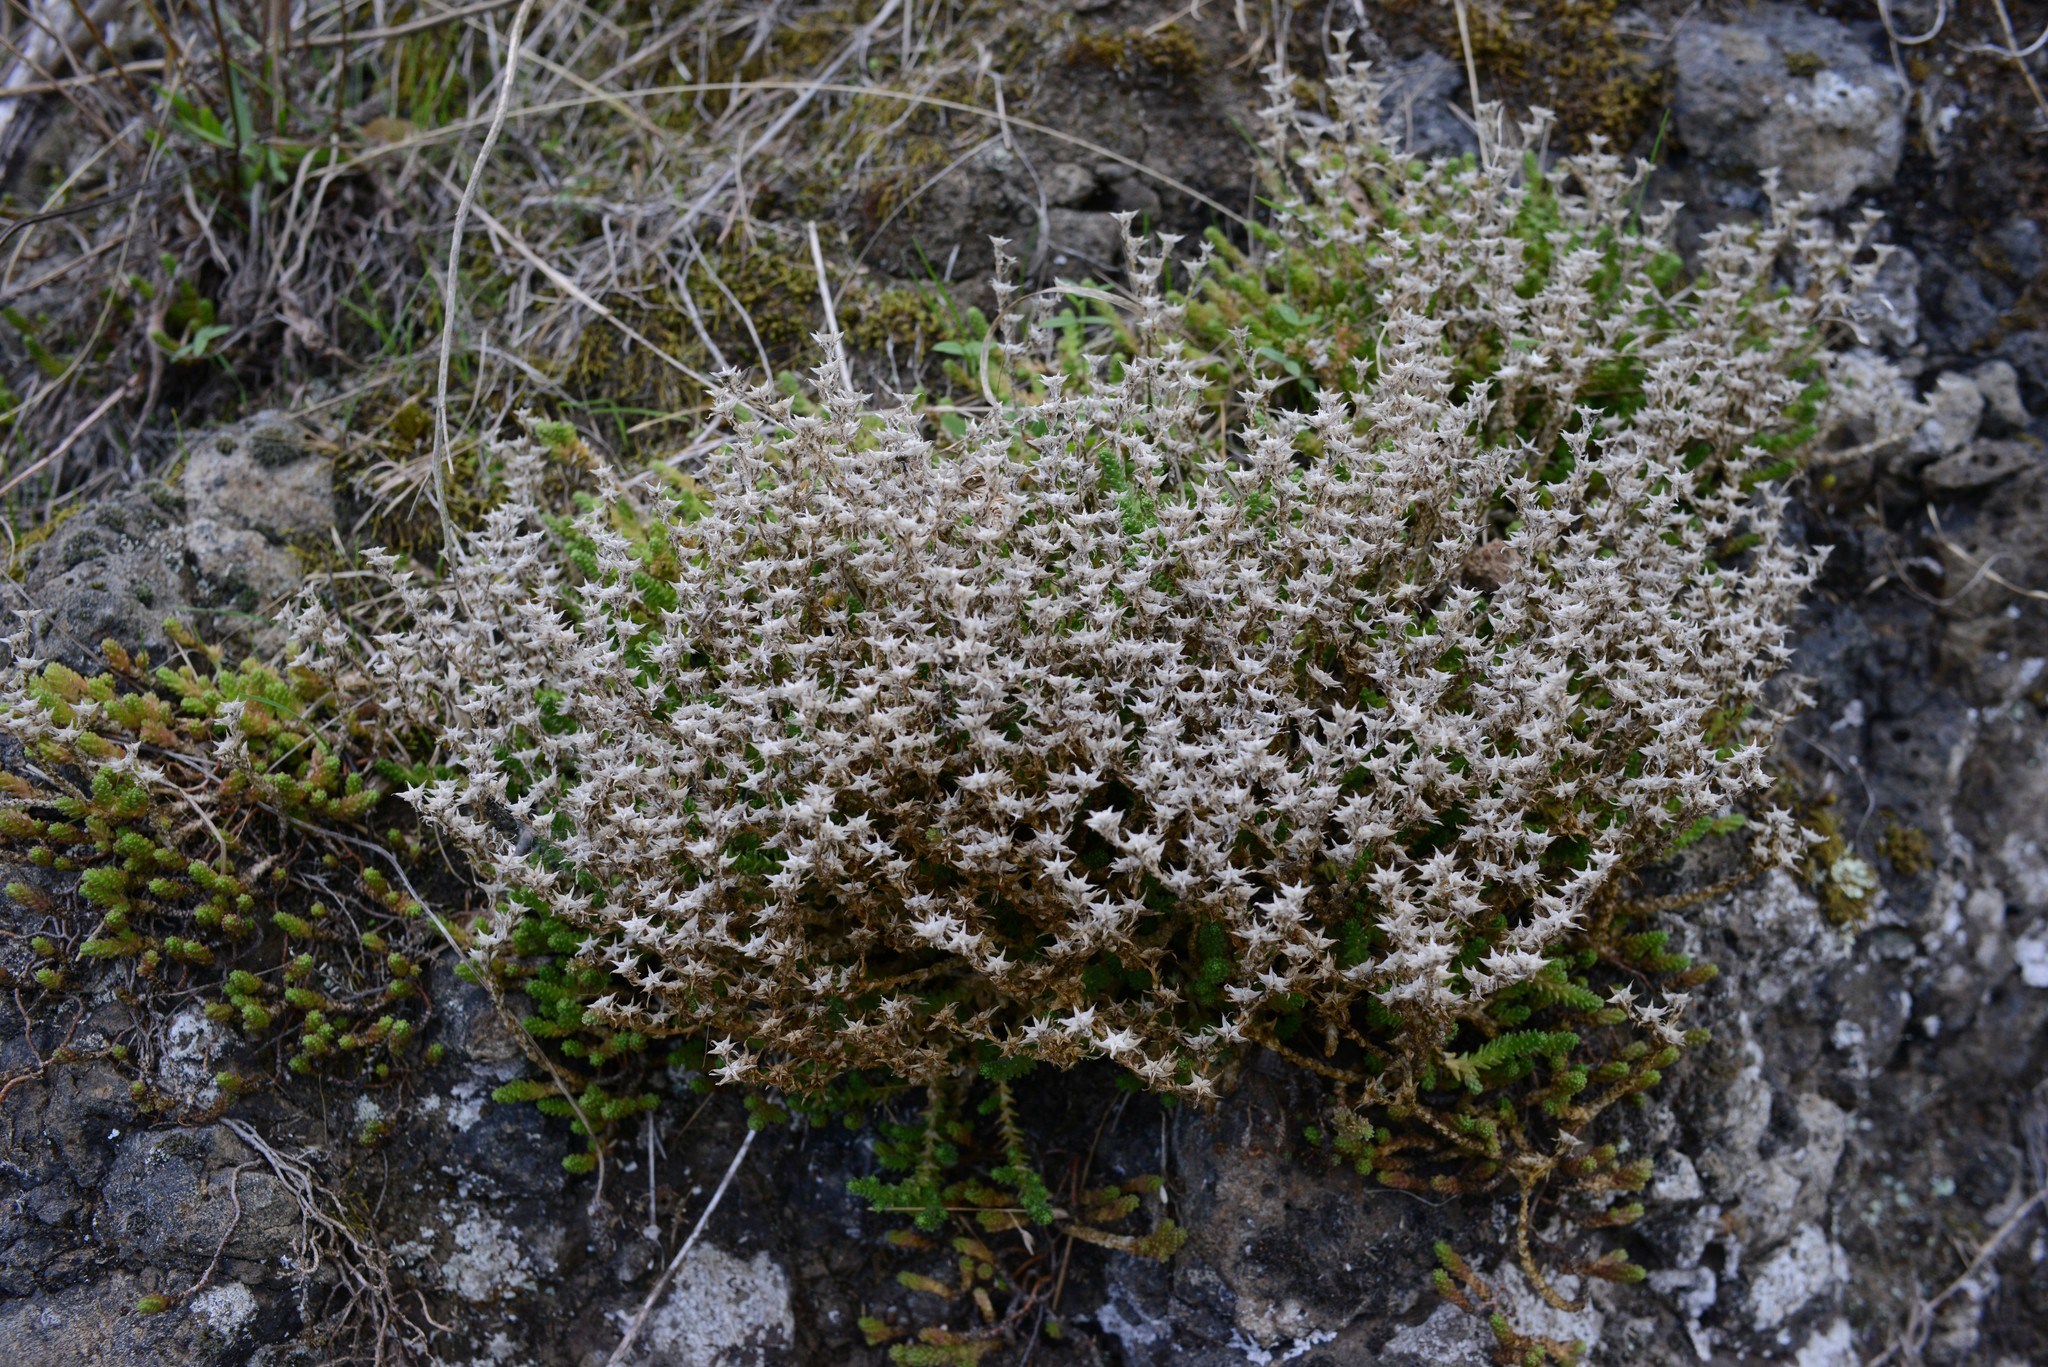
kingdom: Plantae
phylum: Tracheophyta
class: Magnoliopsida
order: Saxifragales
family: Crassulaceae
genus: Sedum
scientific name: Sedum acre
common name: Biting stonecrop
